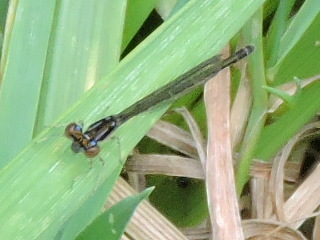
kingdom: Animalia
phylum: Arthropoda
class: Insecta
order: Odonata
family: Coenagrionidae
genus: Ischnura
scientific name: Ischnura posita
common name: Fragile forktail
